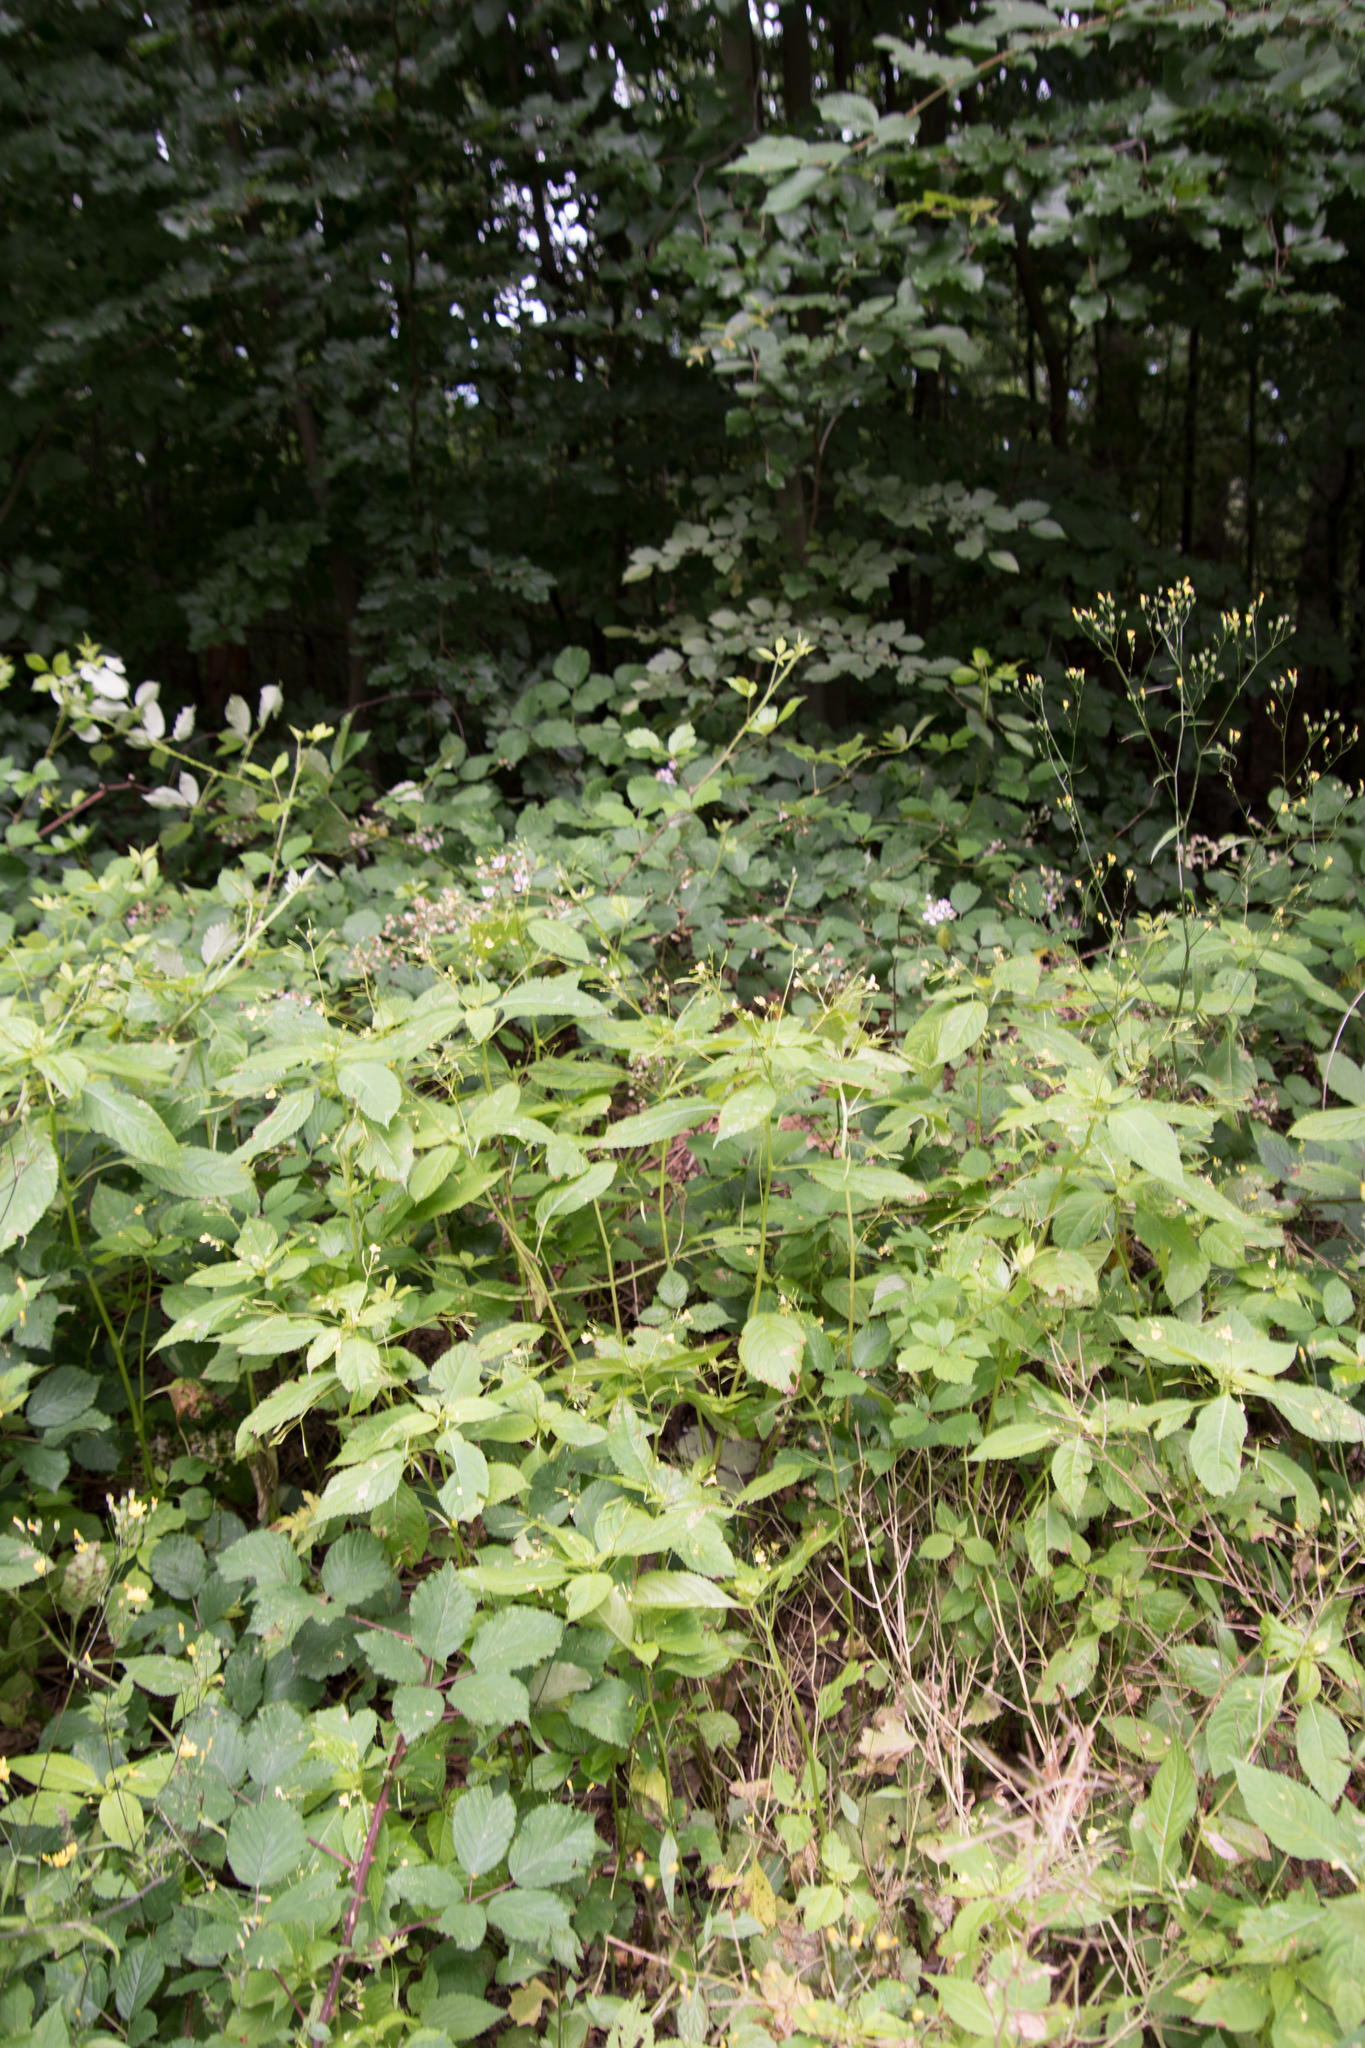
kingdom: Plantae
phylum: Tracheophyta
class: Magnoliopsida
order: Ericales
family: Balsaminaceae
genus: Impatiens
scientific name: Impatiens parviflora
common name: Small balsam
